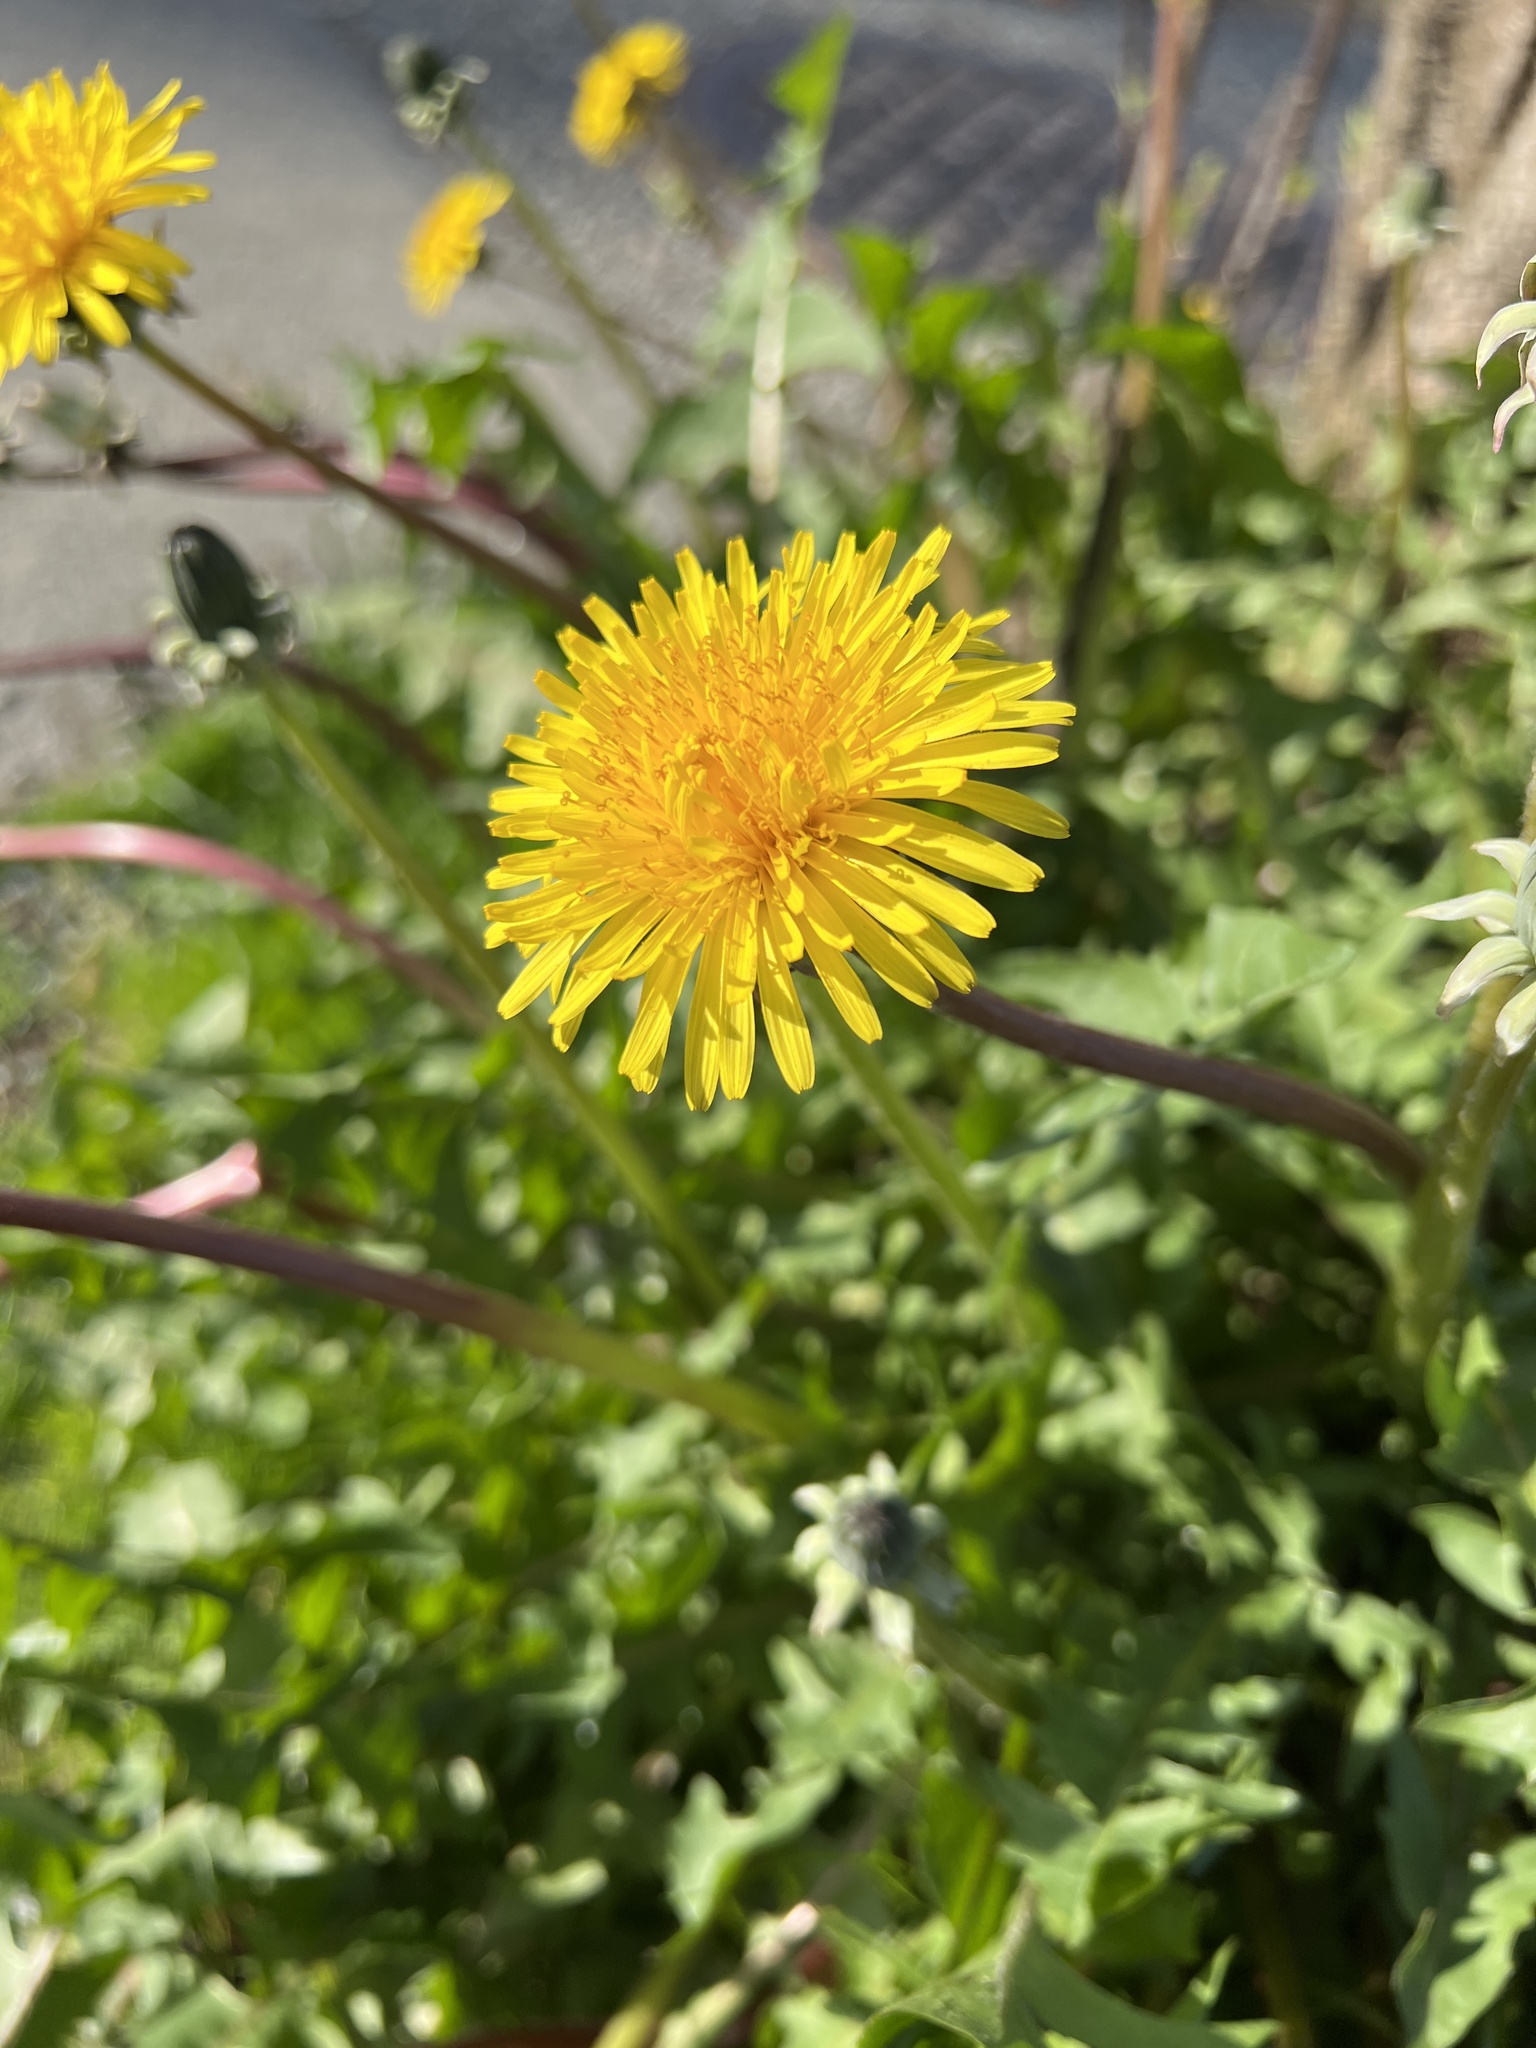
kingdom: Plantae
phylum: Tracheophyta
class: Magnoliopsida
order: Asterales
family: Asteraceae
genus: Taraxacum
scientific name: Taraxacum officinale
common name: Common dandelion
